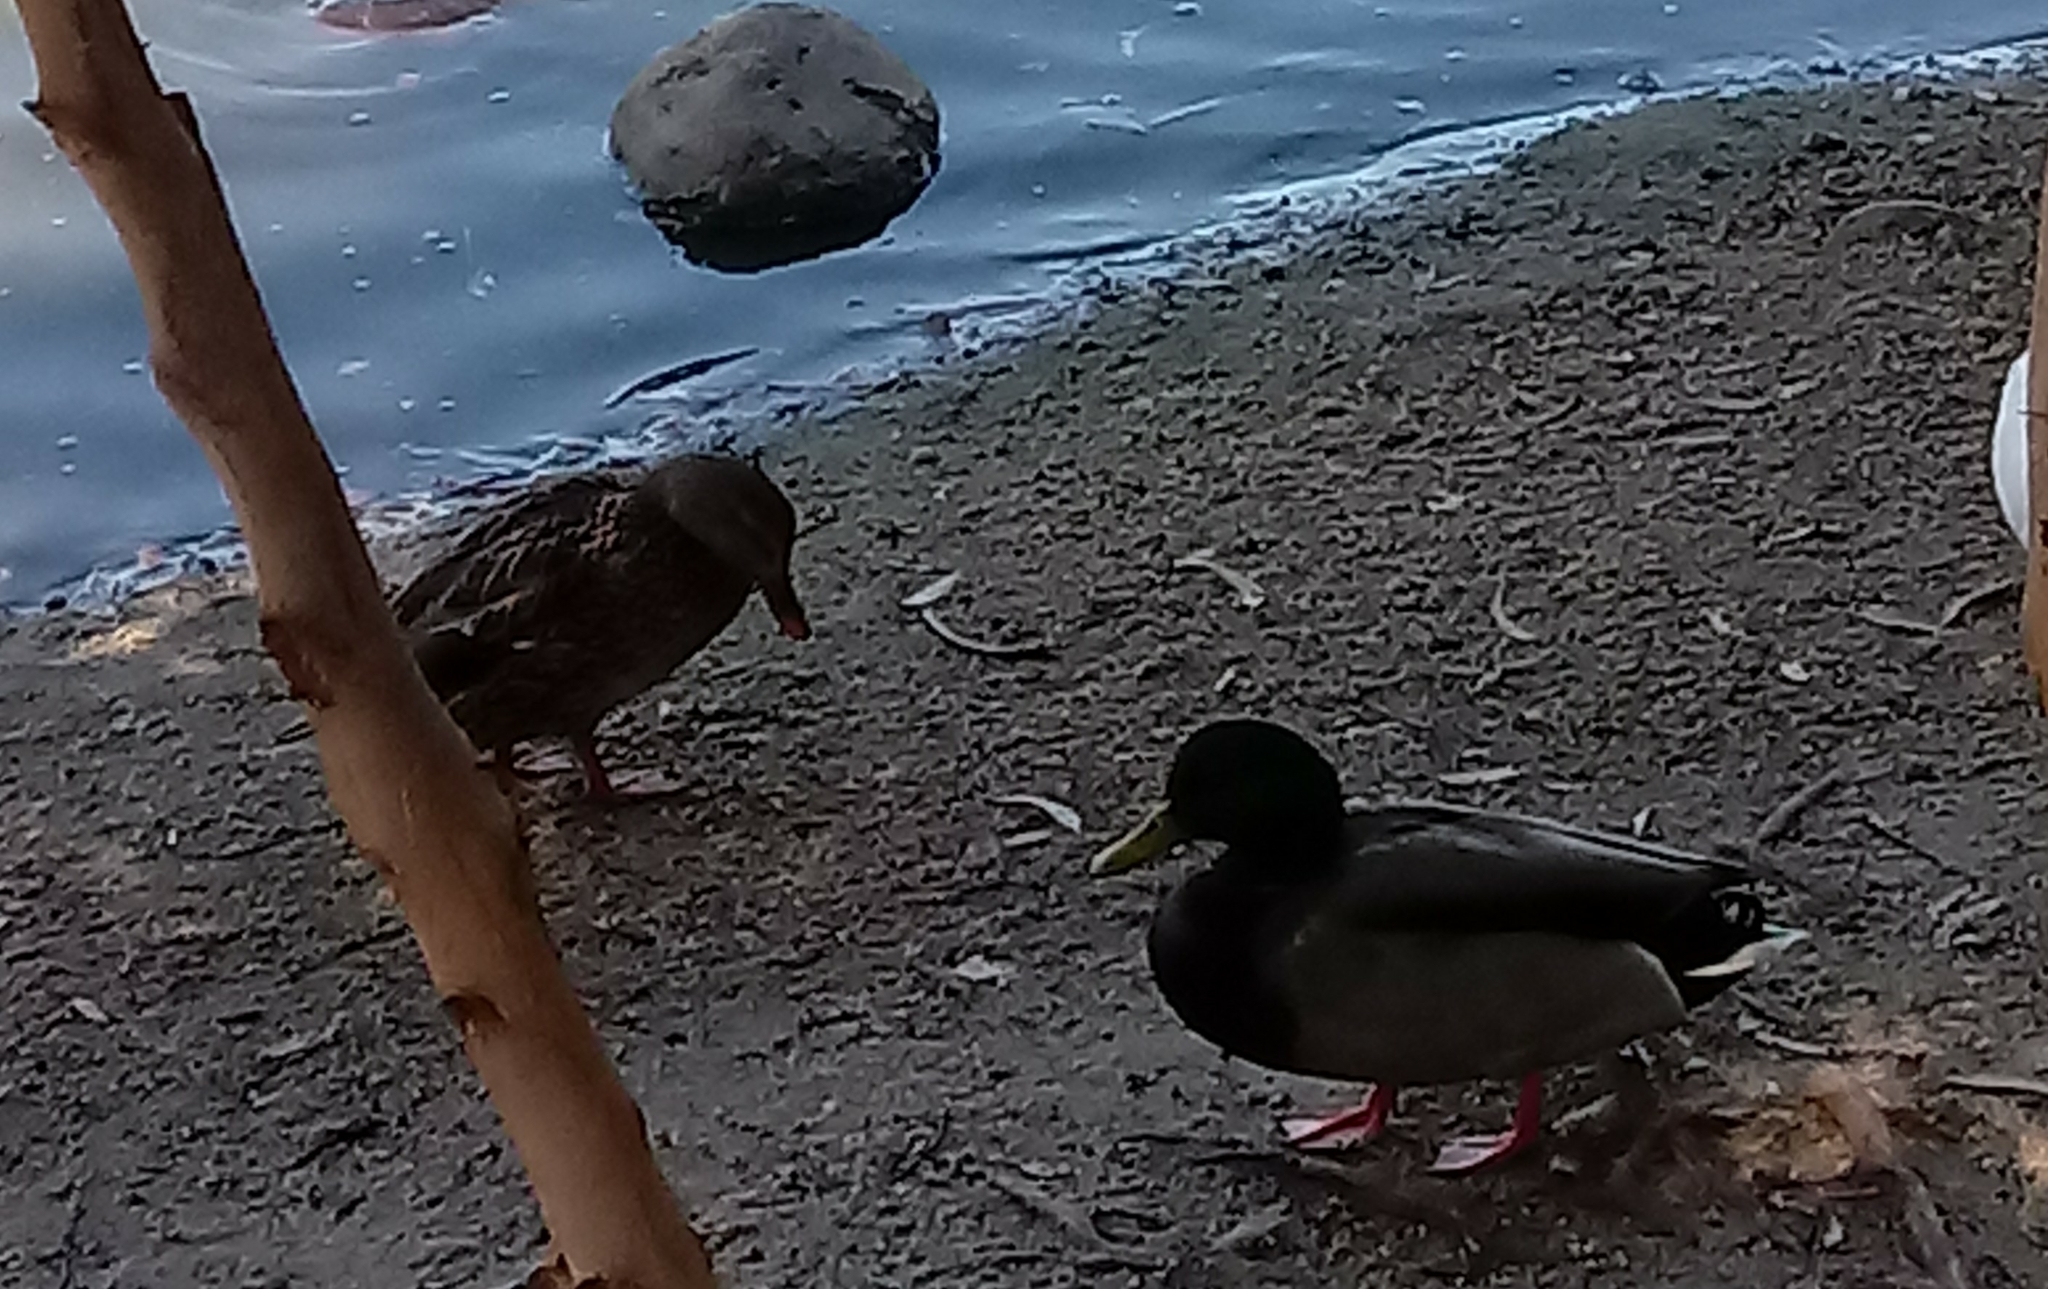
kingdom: Animalia
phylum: Chordata
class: Aves
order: Anseriformes
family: Anatidae
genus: Anas
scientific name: Anas platyrhynchos
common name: Mallard
